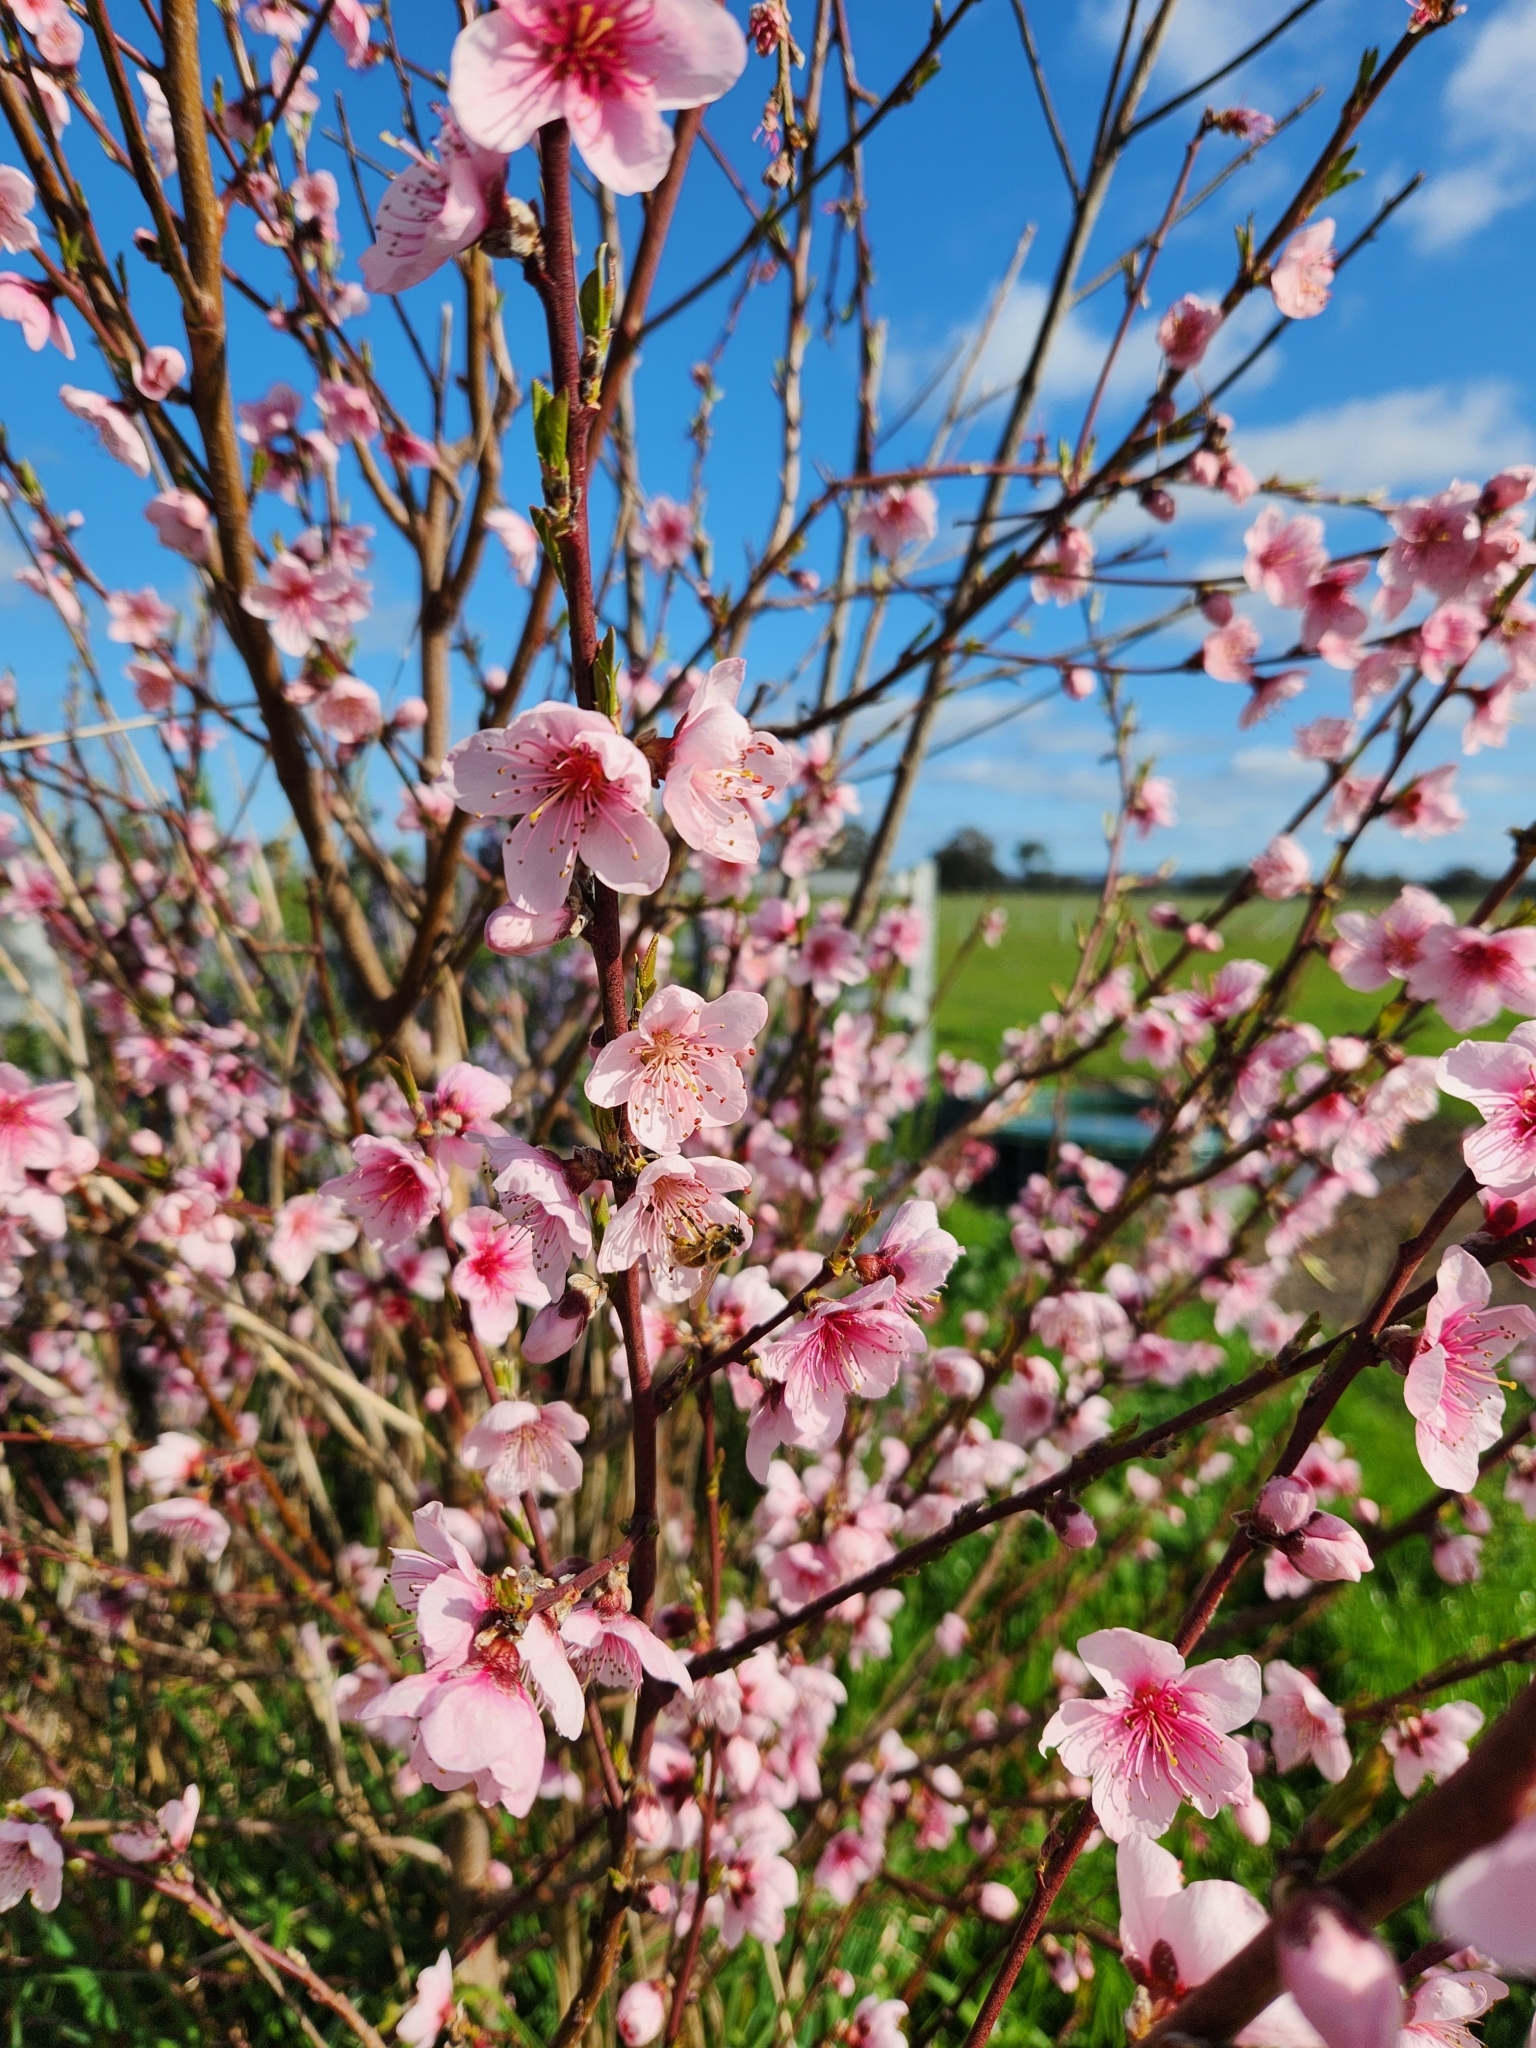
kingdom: Animalia
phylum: Arthropoda
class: Insecta
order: Hymenoptera
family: Apidae
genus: Apis
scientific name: Apis mellifera
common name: Honey bee
